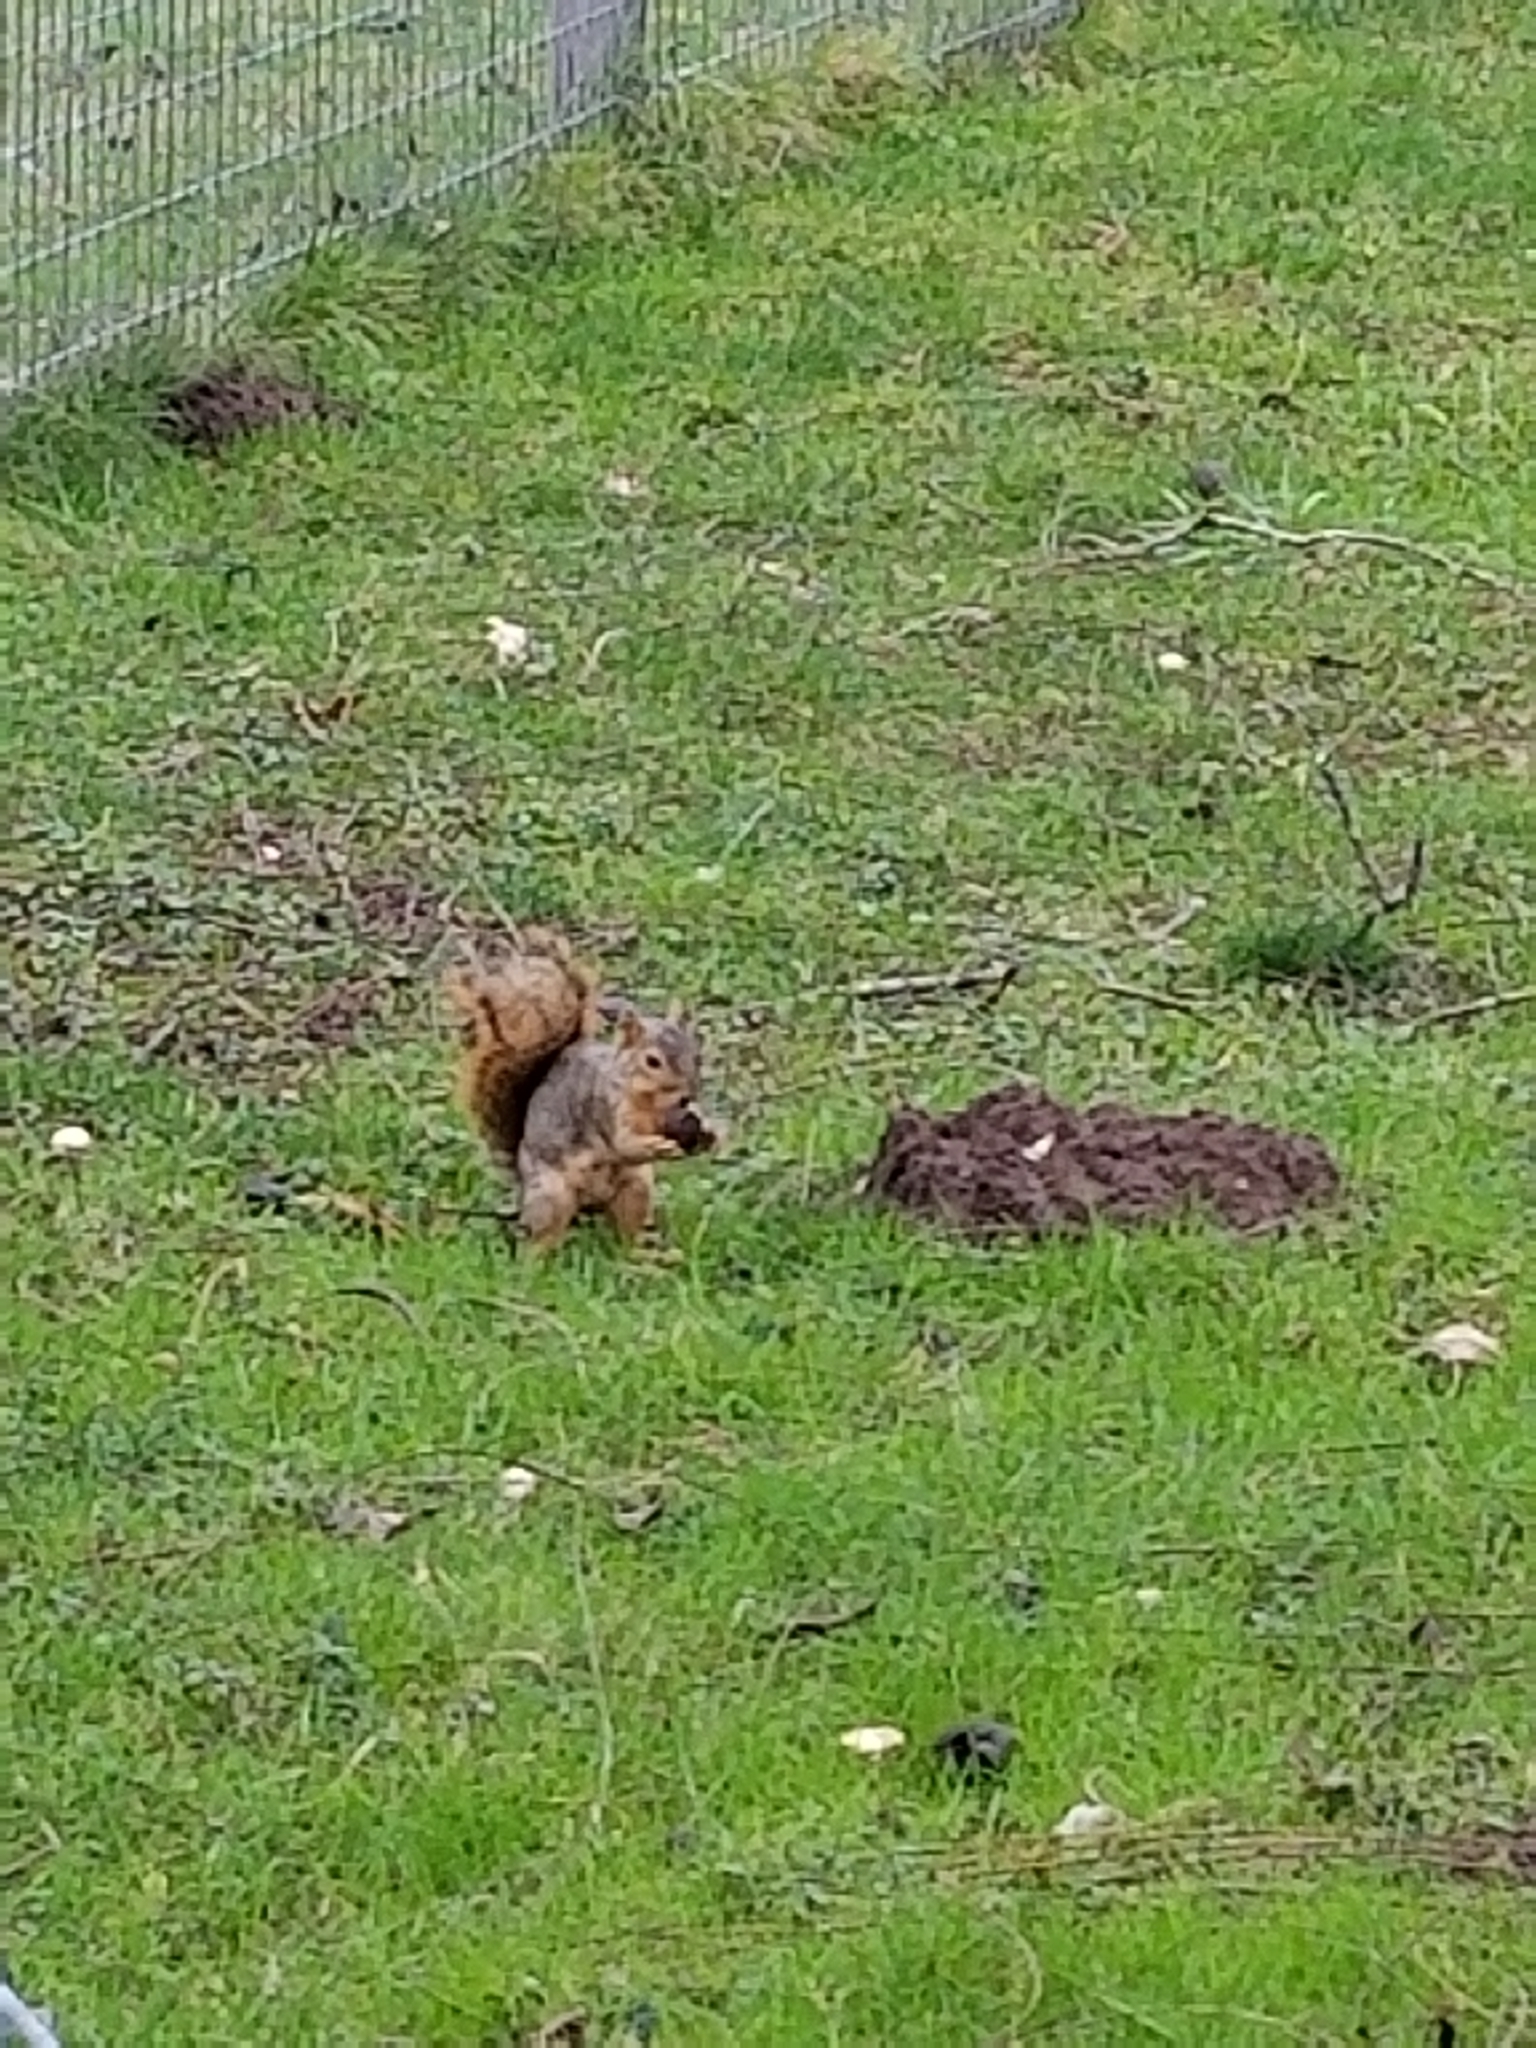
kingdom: Animalia
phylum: Chordata
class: Mammalia
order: Rodentia
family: Sciuridae
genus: Sciurus
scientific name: Sciurus niger
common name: Fox squirrel
